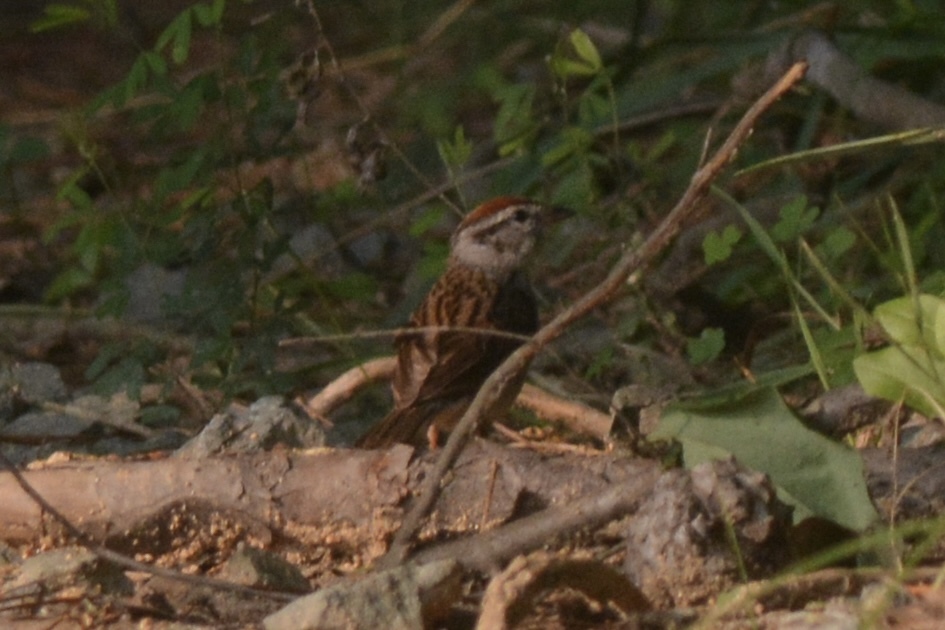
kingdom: Animalia
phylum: Chordata
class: Aves
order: Passeriformes
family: Passerellidae
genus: Spizella
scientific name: Spizella passerina
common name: Chipping sparrow
